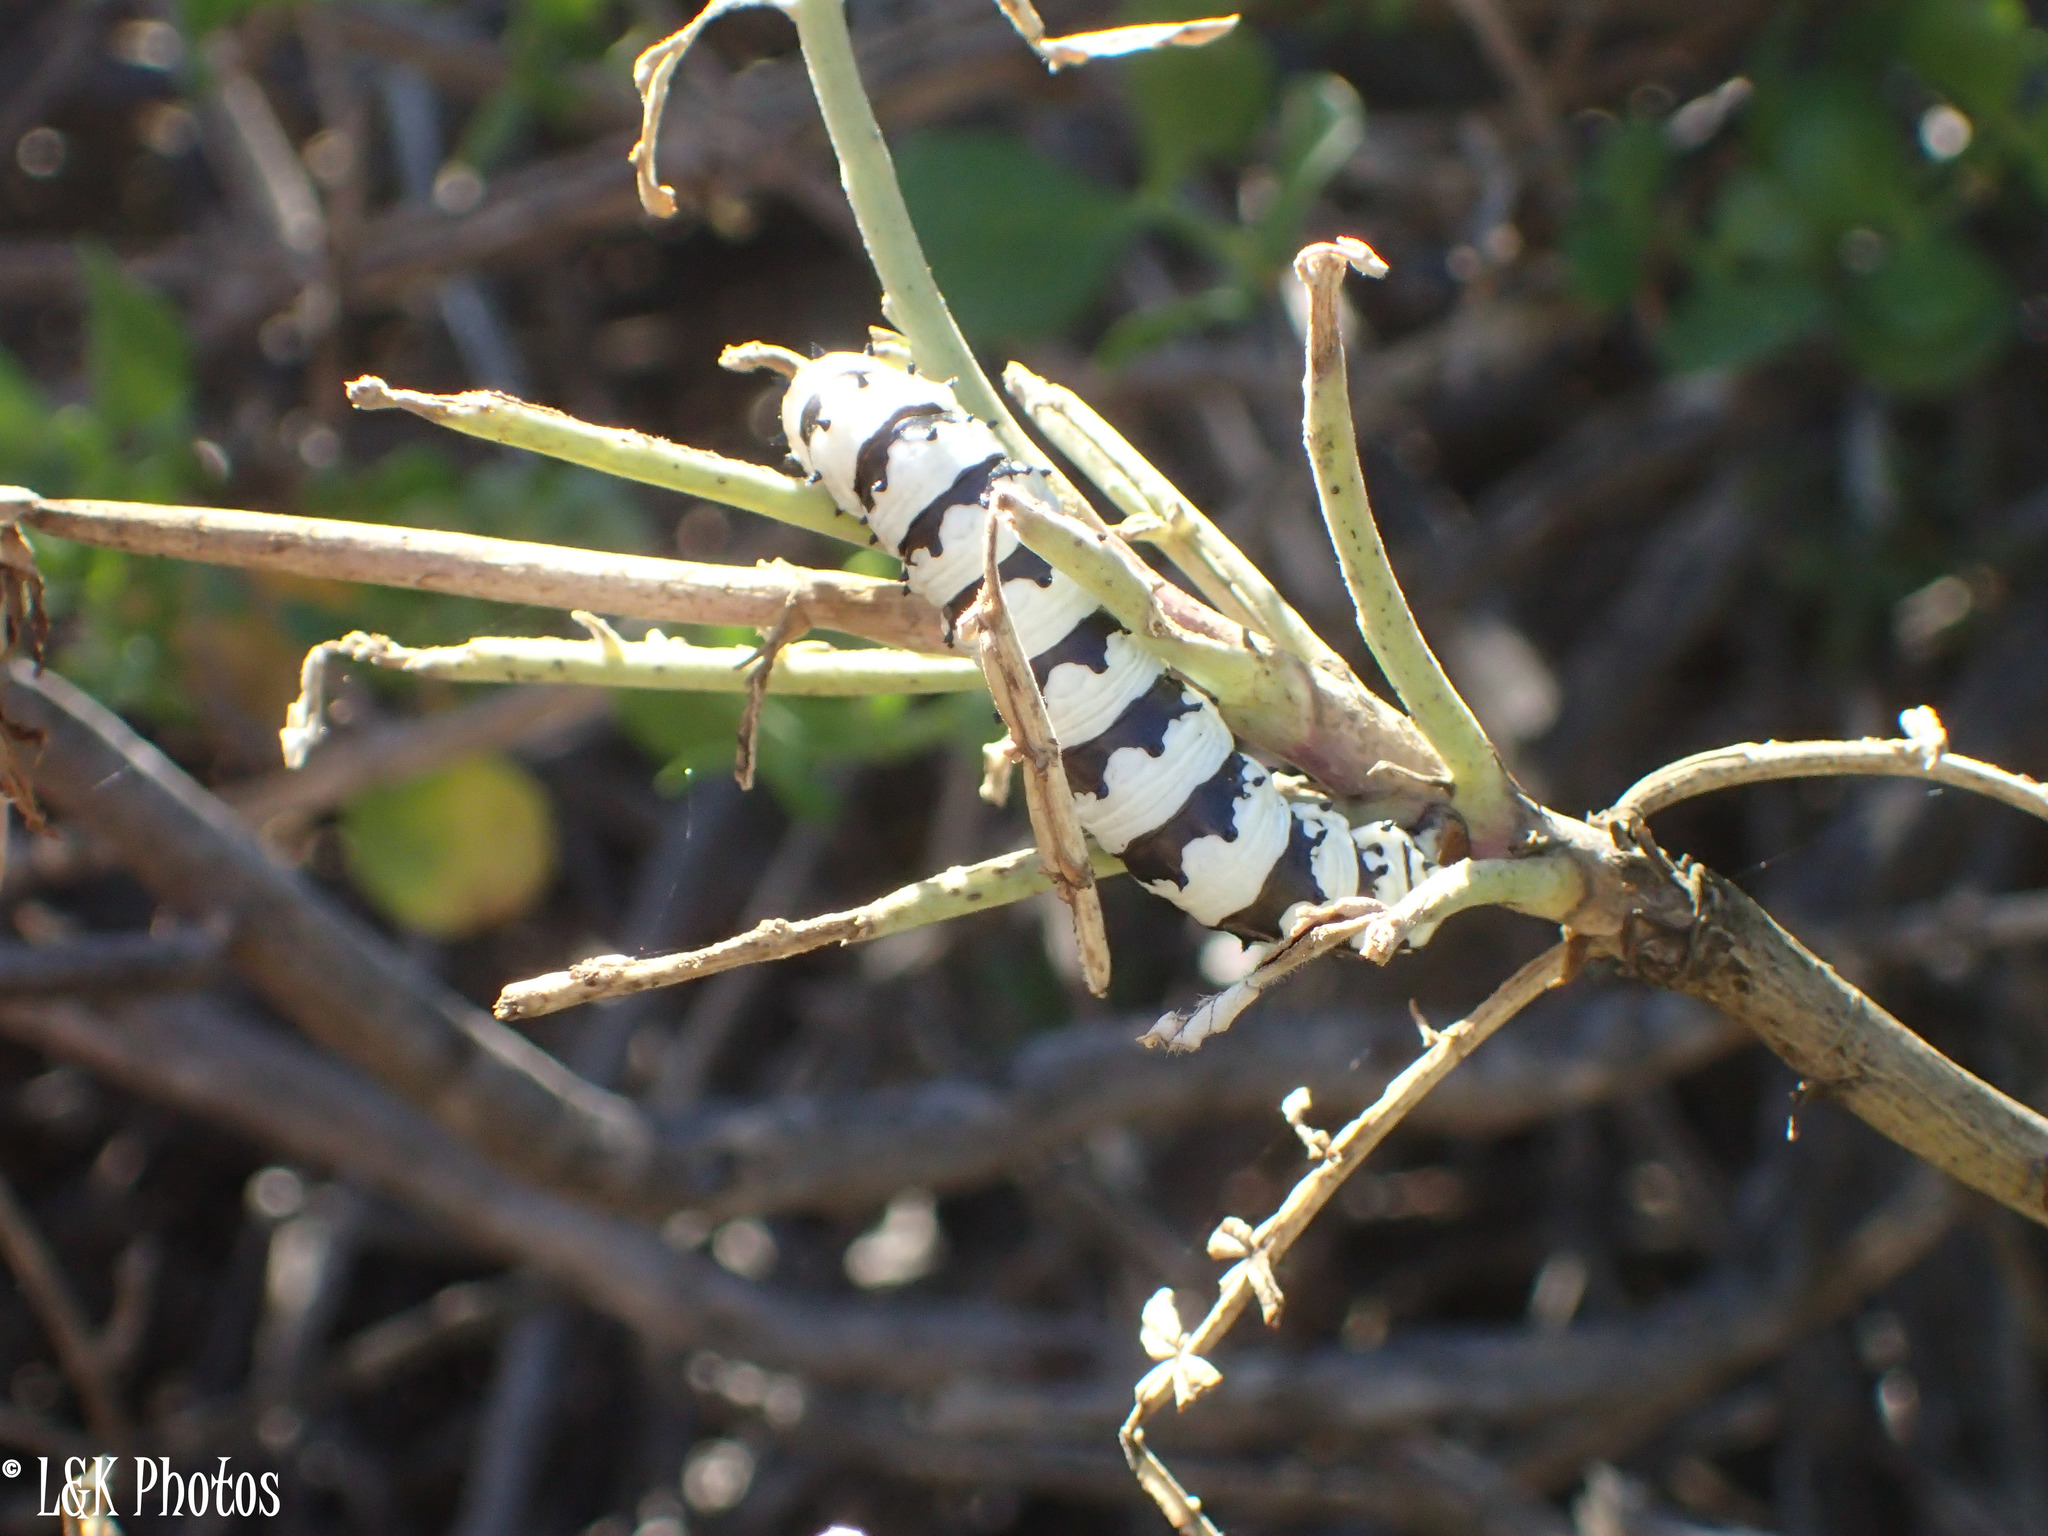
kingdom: Animalia
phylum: Arthropoda
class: Insecta
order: Lepidoptera
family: Saturniidae
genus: Eochroa
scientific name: Eochroa trimeni
